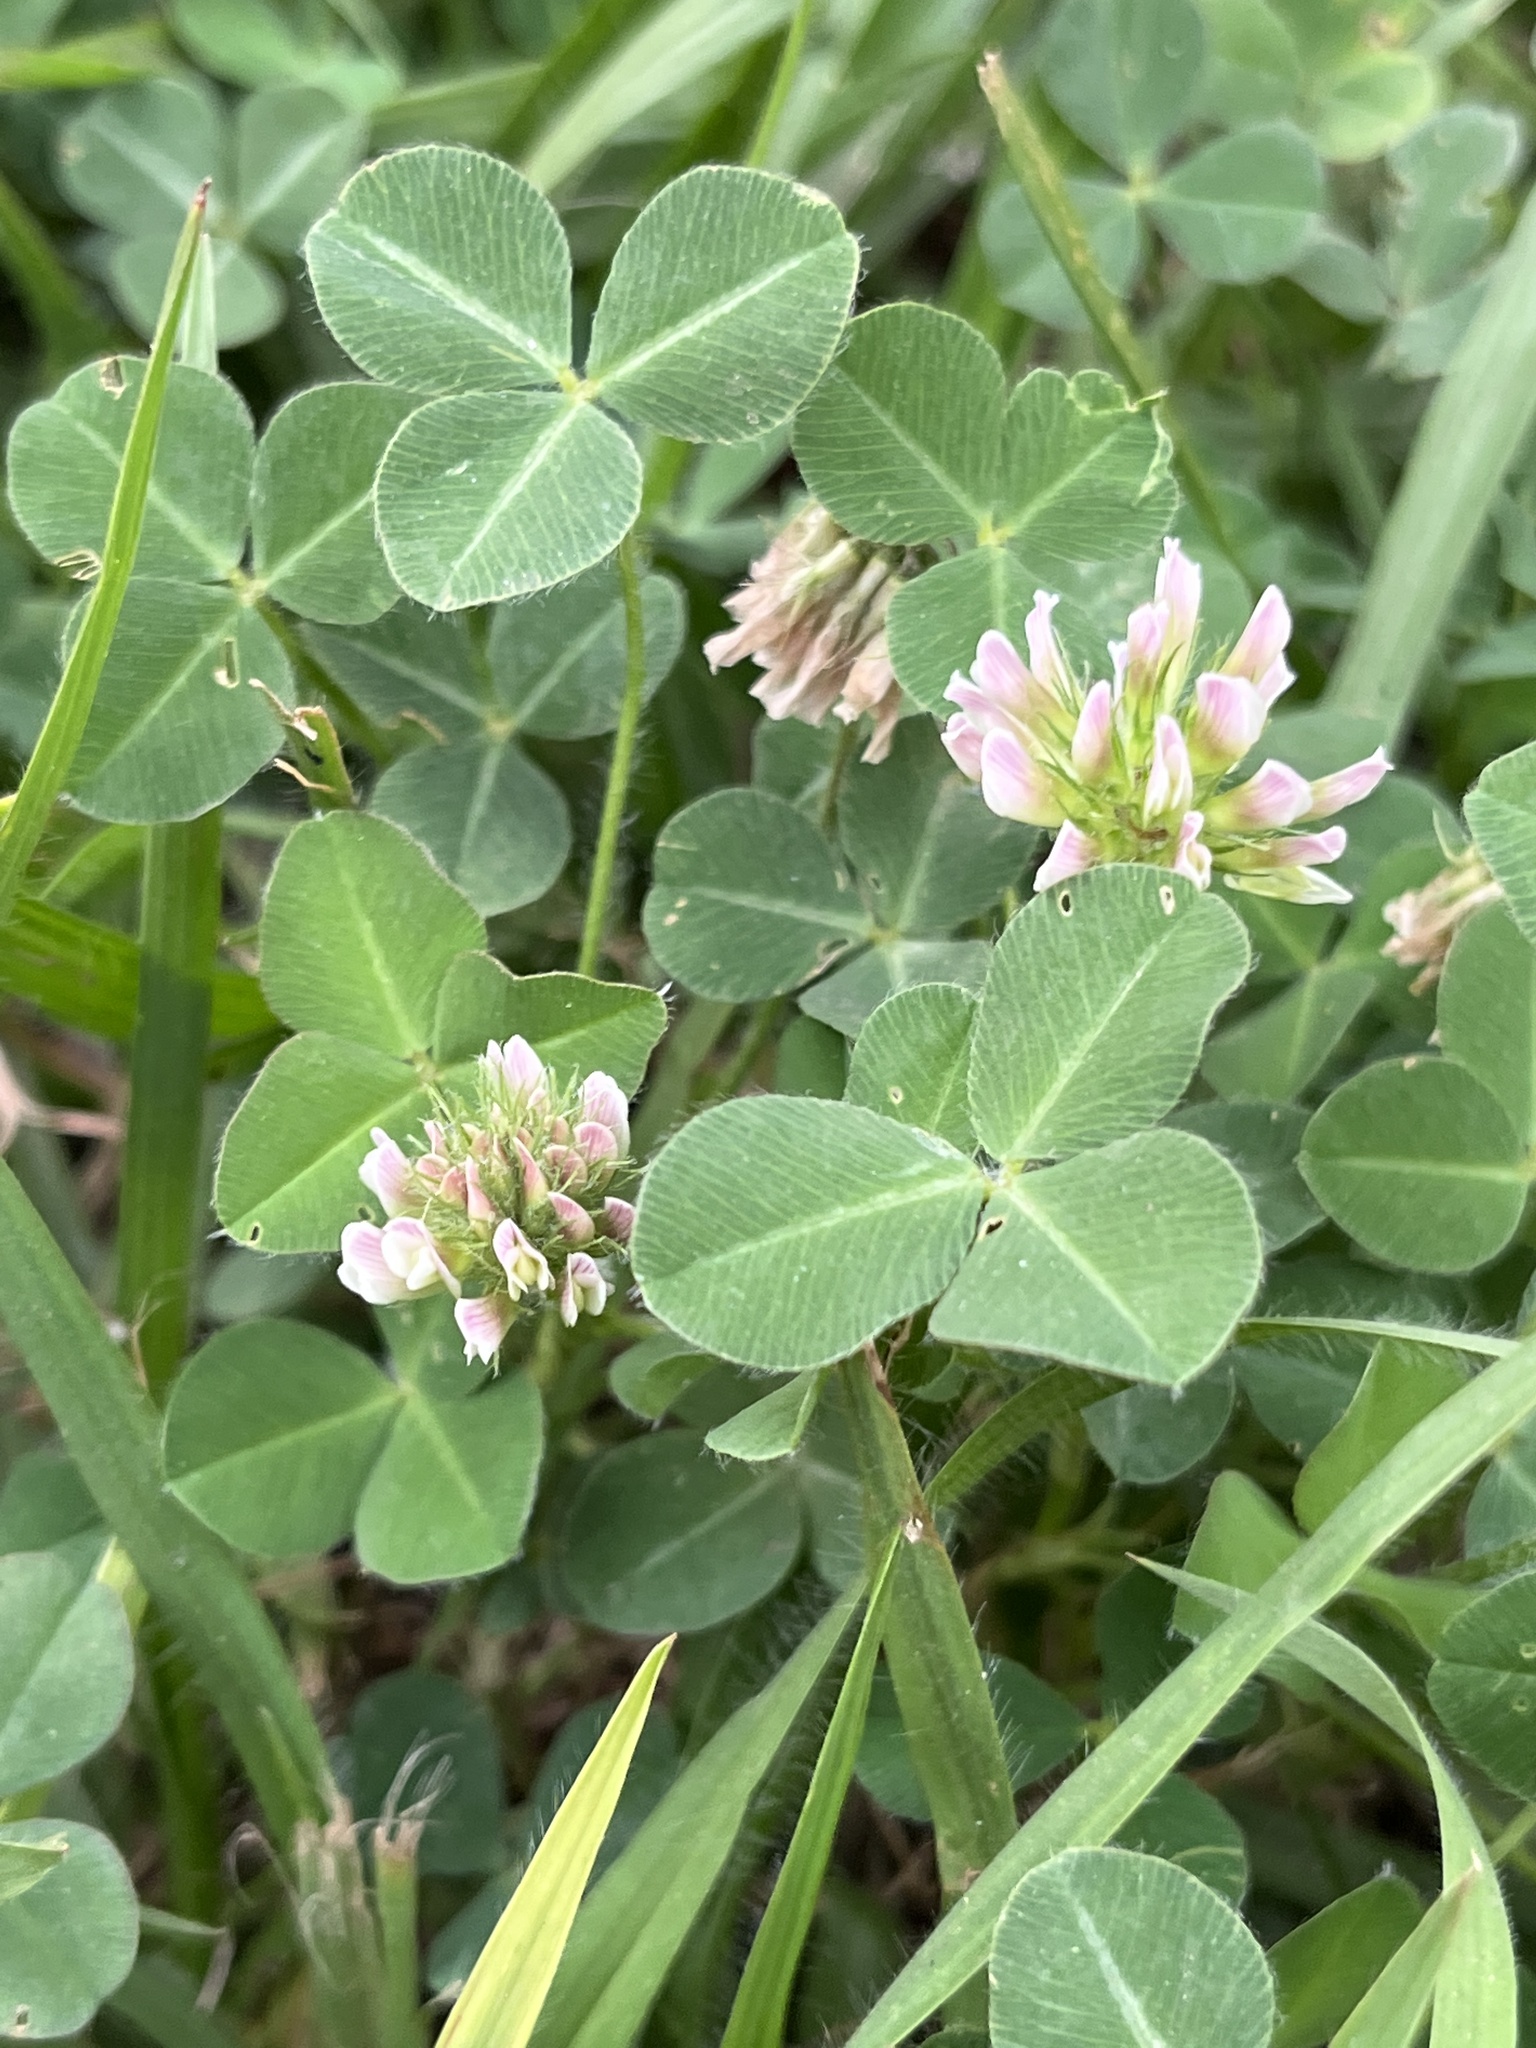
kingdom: Plantae
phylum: Tracheophyta
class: Magnoliopsida
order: Fabales
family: Fabaceae
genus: Trifolium
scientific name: Trifolium repens
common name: White clover
